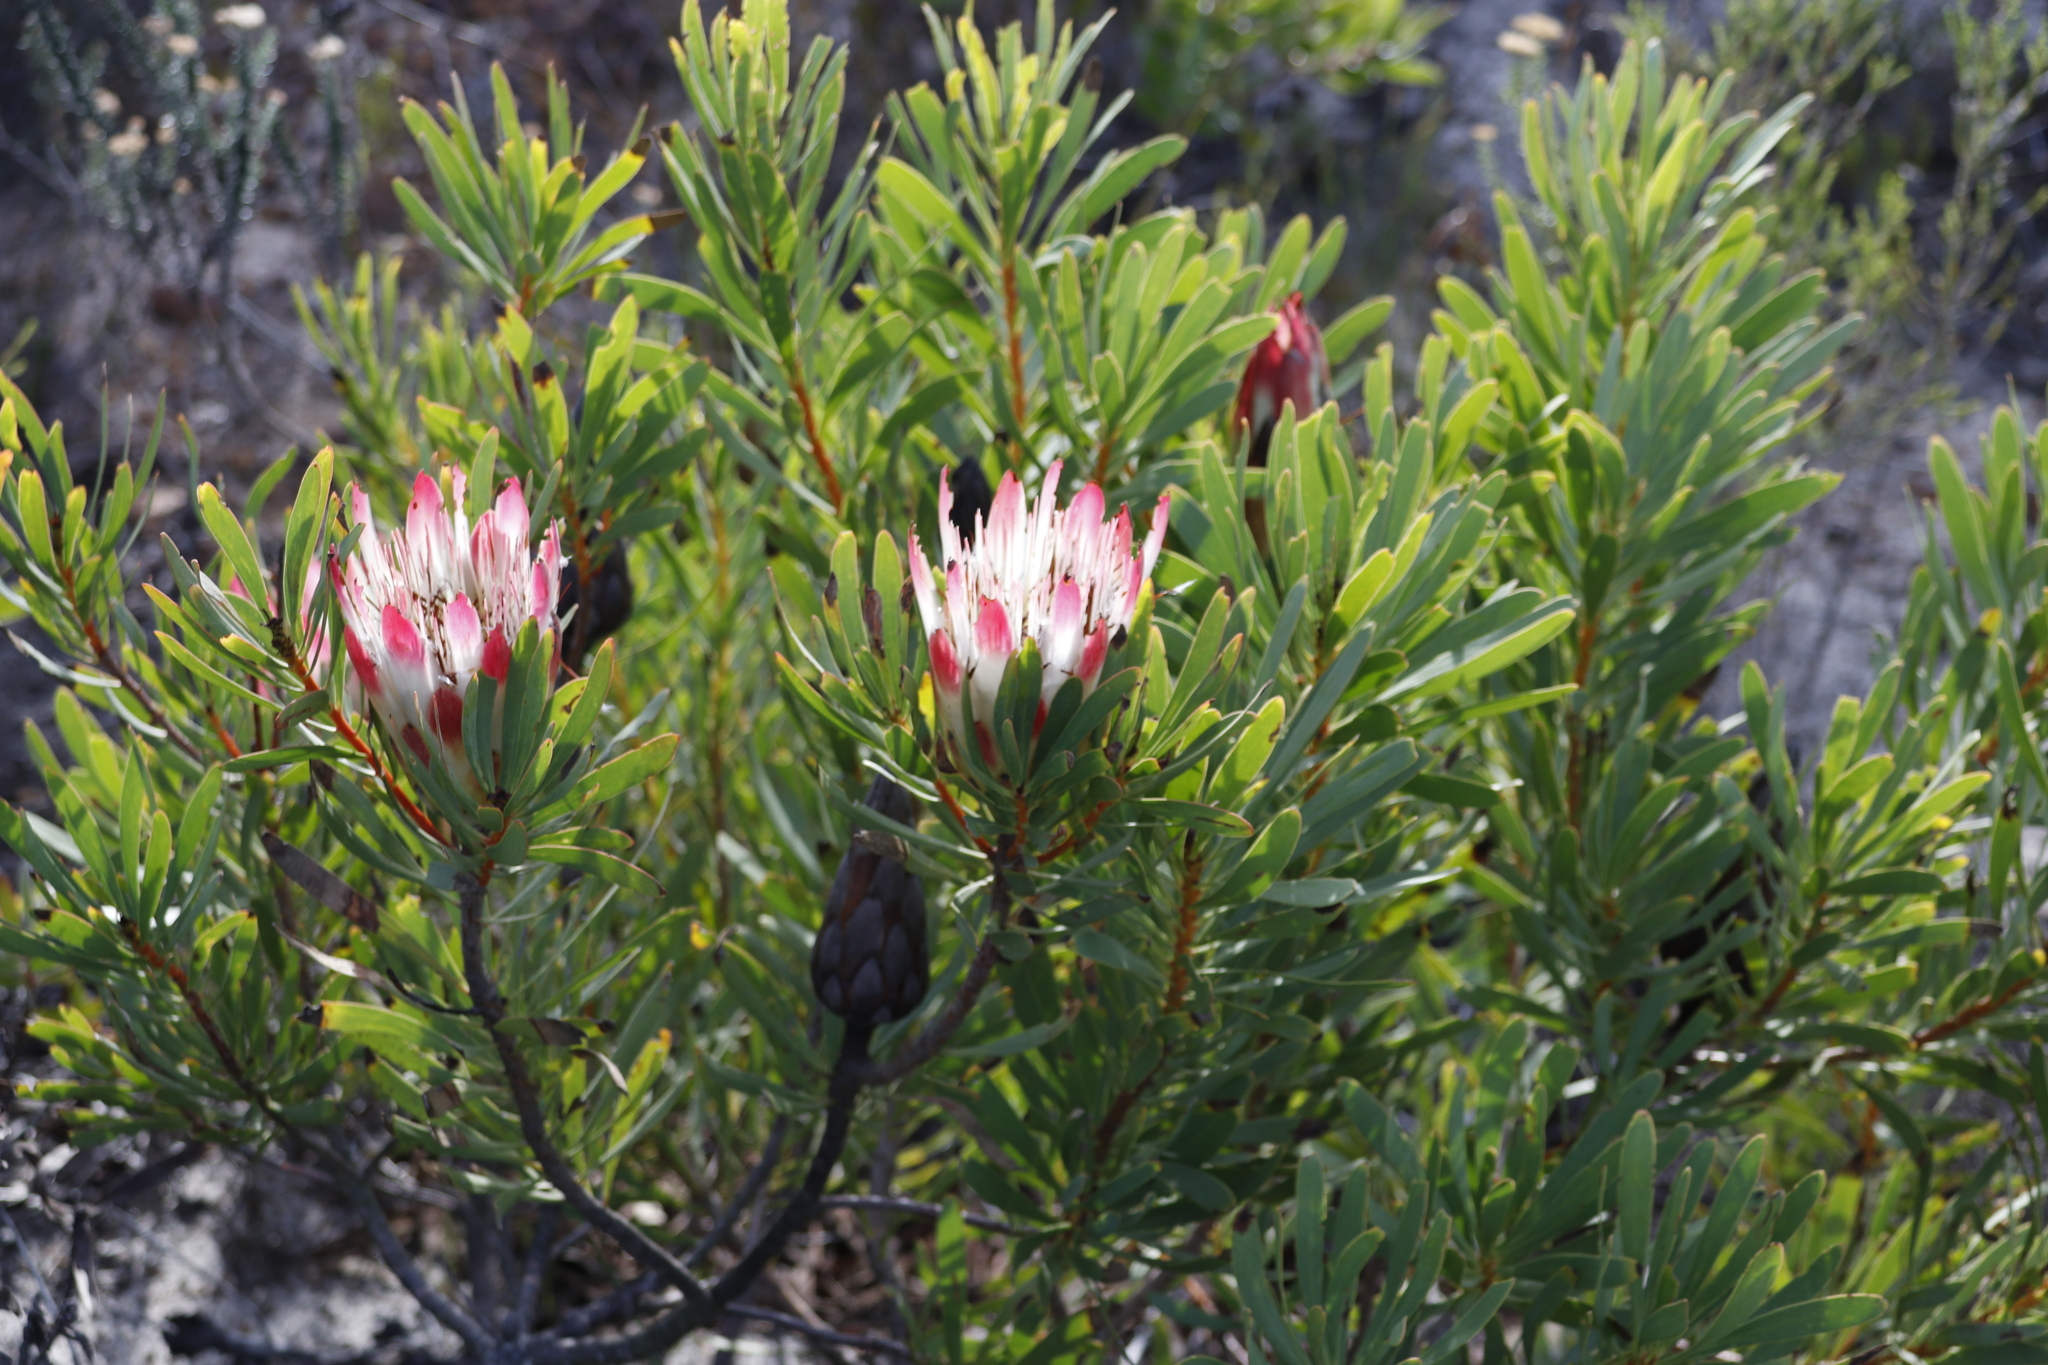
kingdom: Plantae
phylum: Tracheophyta
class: Magnoliopsida
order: Proteales
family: Proteaceae
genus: Protea
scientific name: Protea repens
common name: Sugarbush
